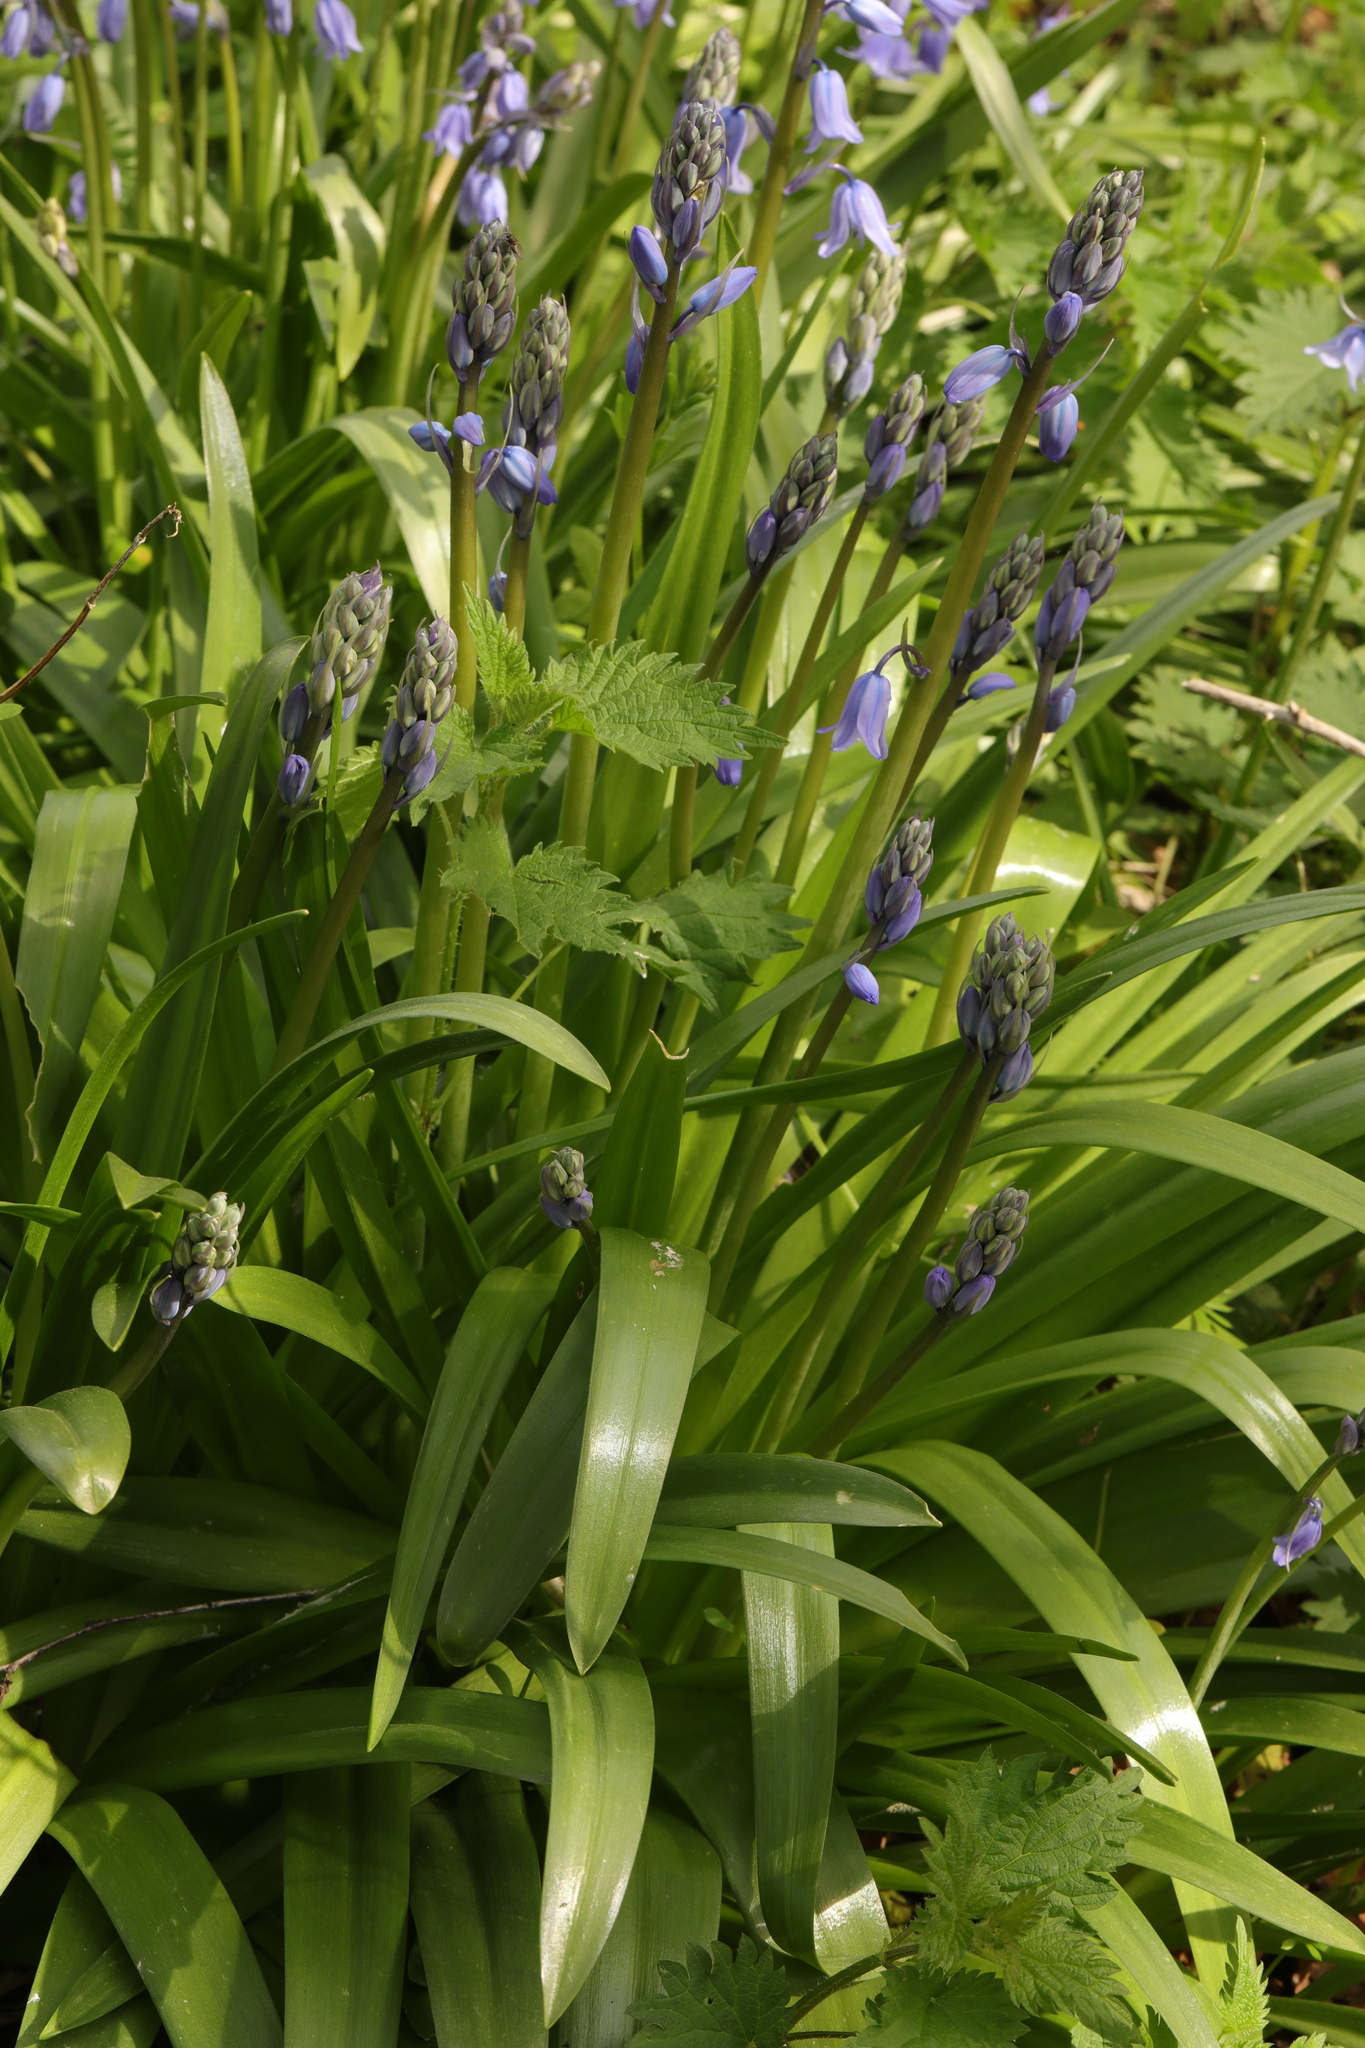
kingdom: Plantae
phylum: Tracheophyta
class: Liliopsida
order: Asparagales
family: Asparagaceae
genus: Hyacinthoides
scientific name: Hyacinthoides hispanica
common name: Spanish bluebell
